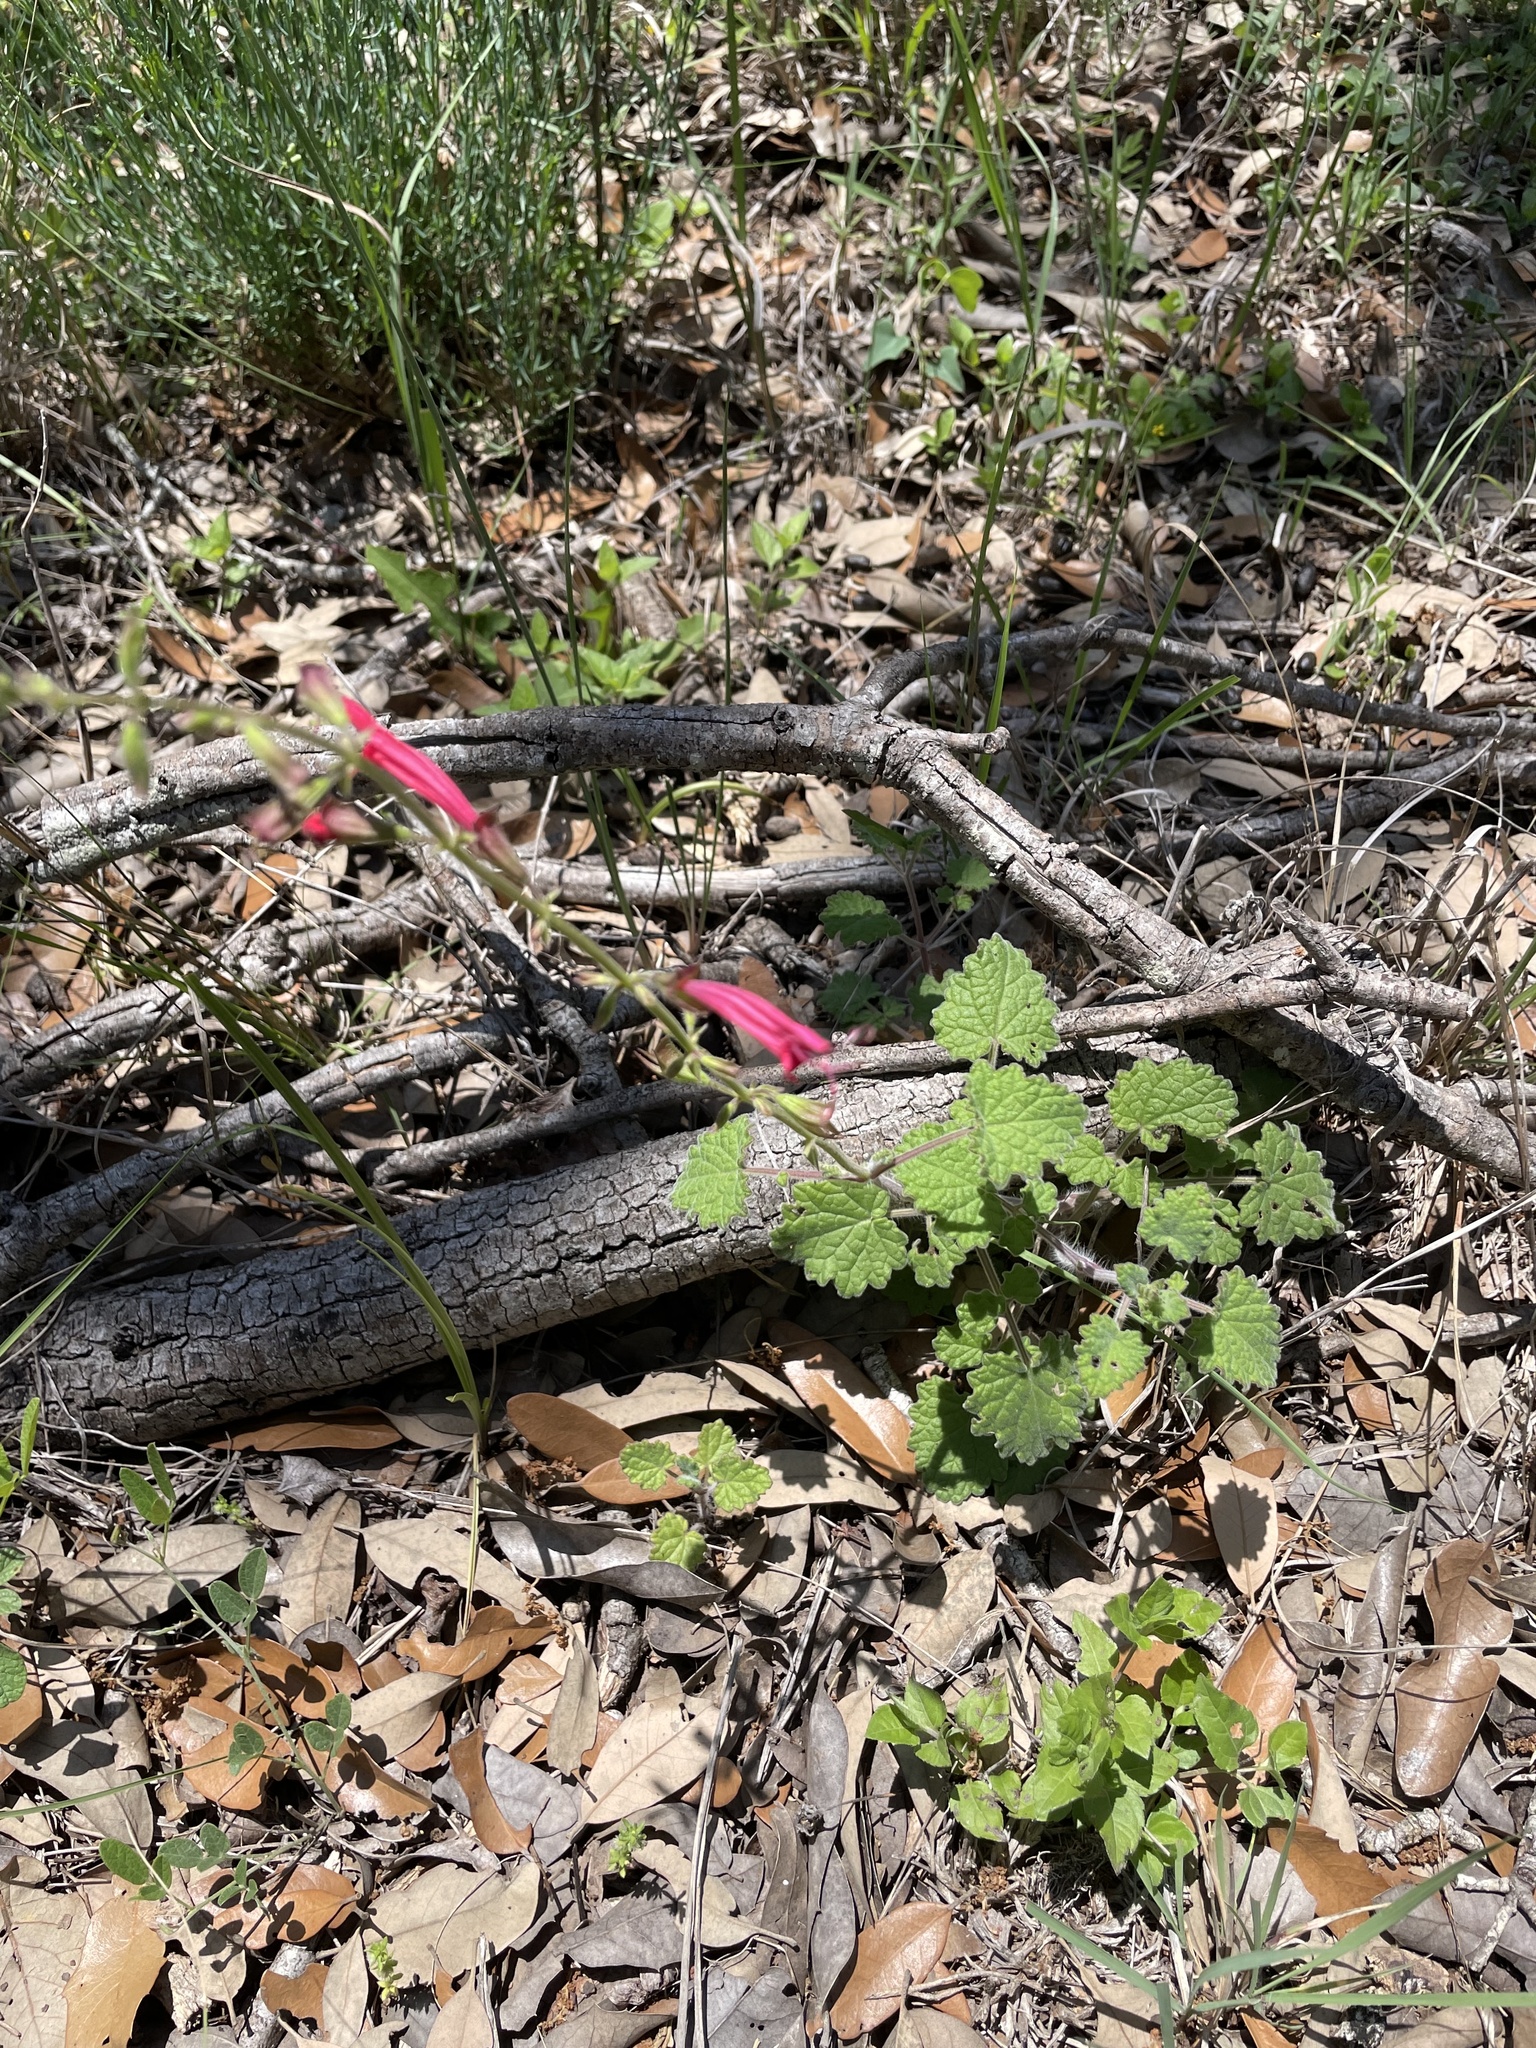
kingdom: Plantae
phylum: Tracheophyta
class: Magnoliopsida
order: Lamiales
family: Lamiaceae
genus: Salvia
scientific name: Salvia roemeriana
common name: Cedar sage
